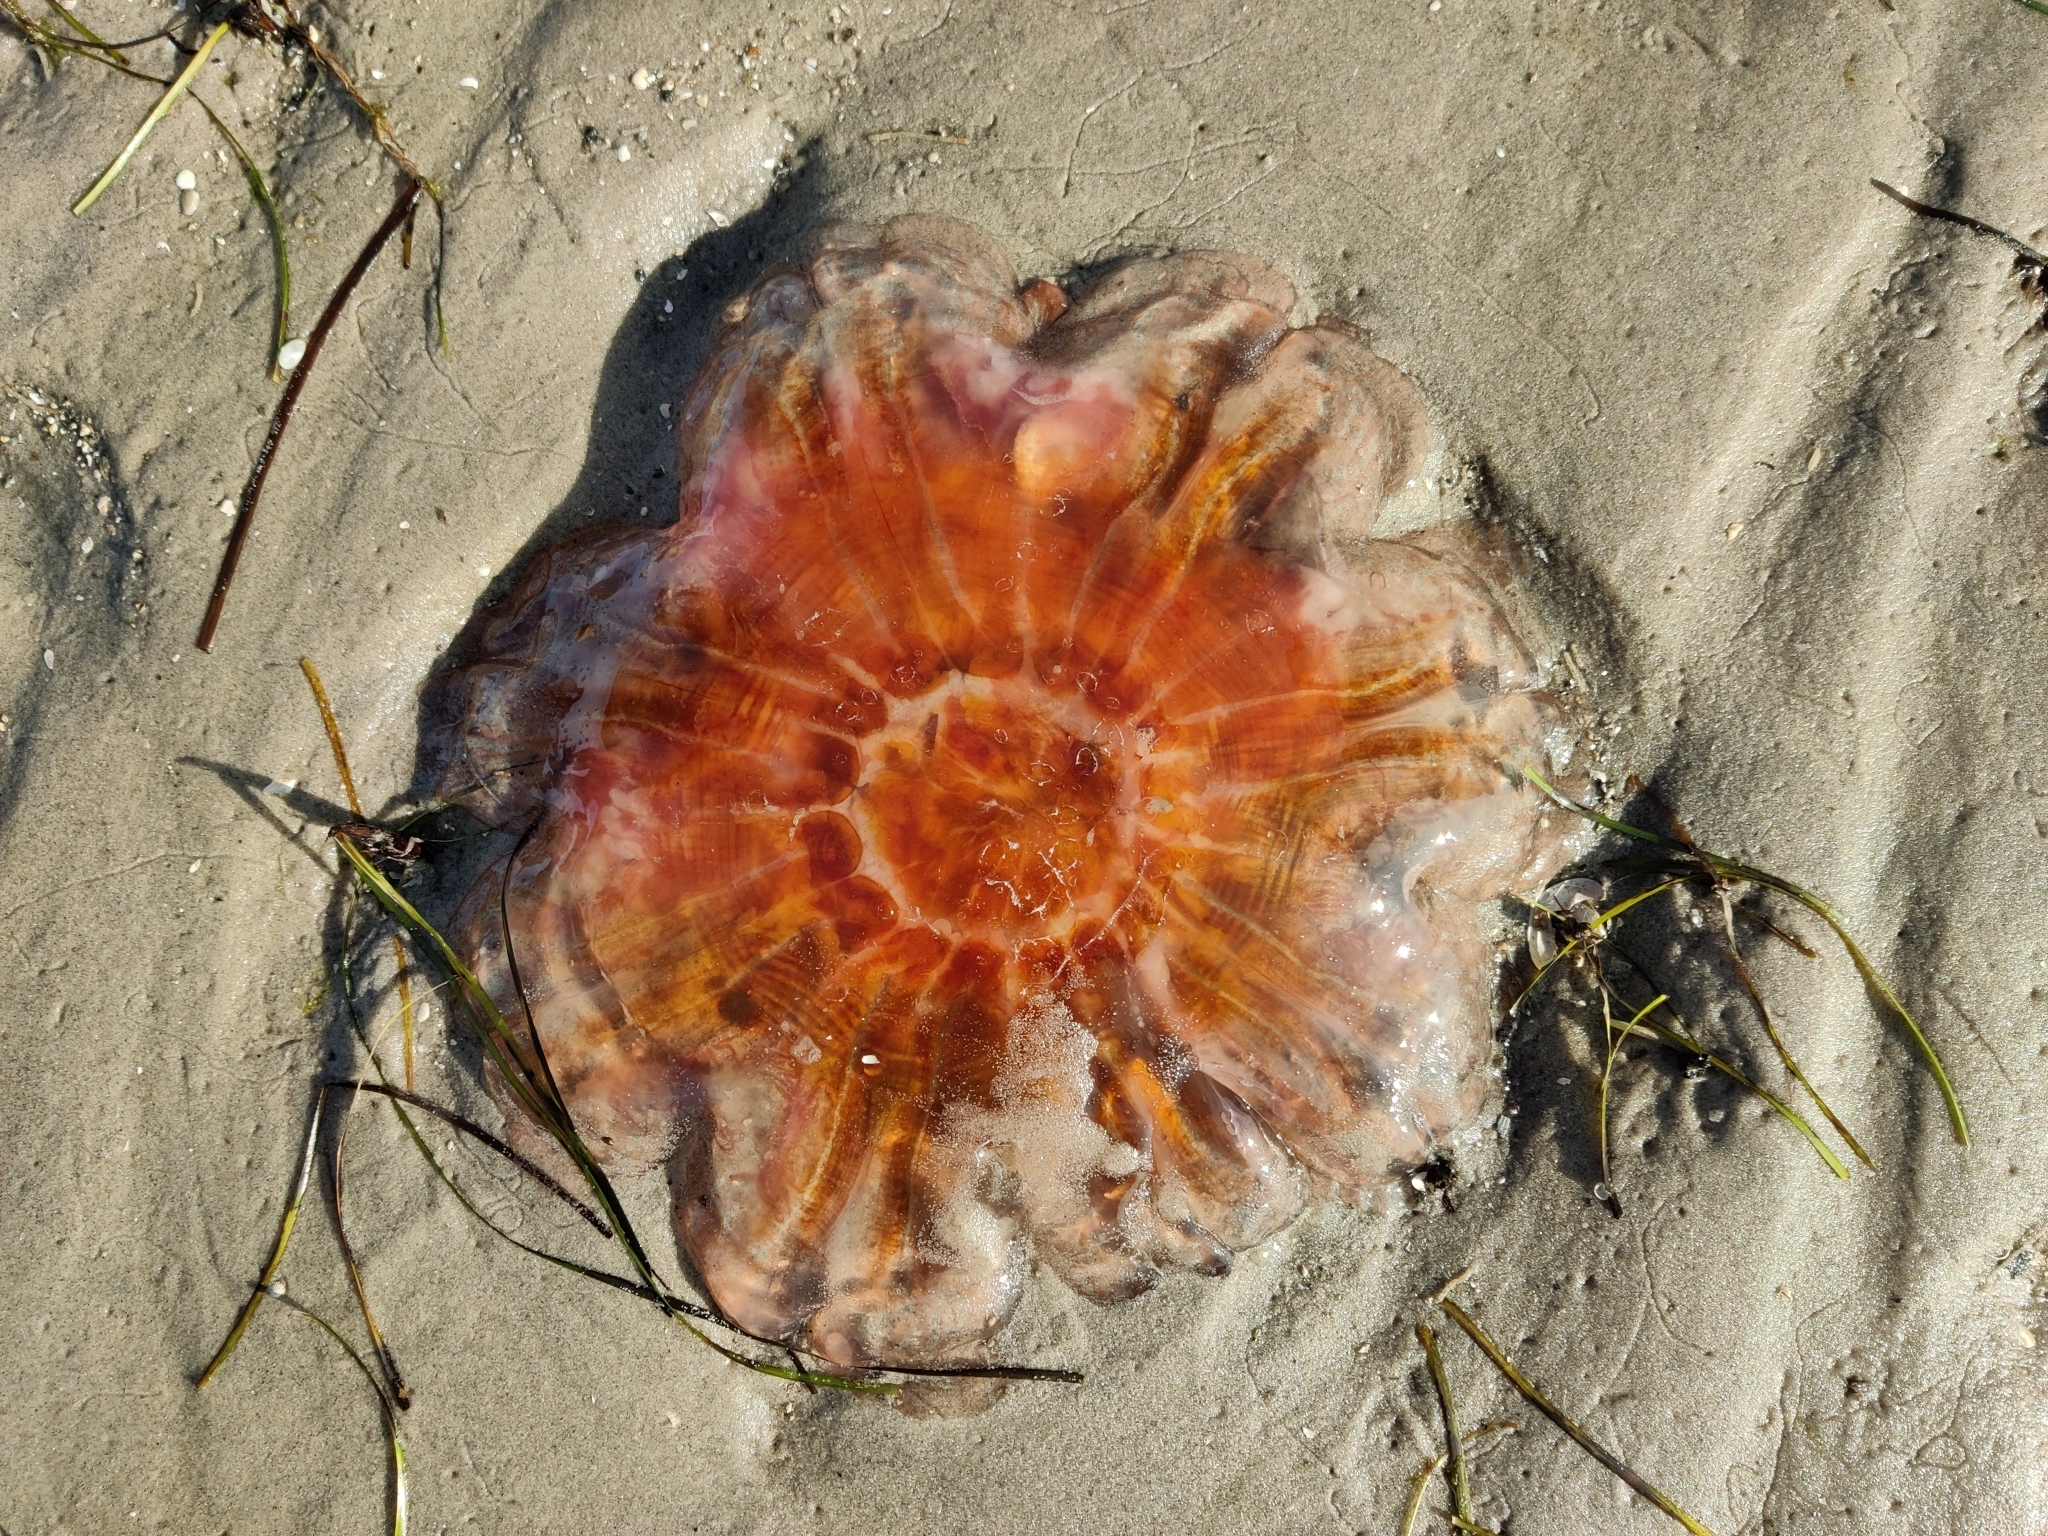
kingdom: Animalia
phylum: Cnidaria
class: Scyphozoa
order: Semaeostomeae
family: Cyaneidae
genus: Cyanea
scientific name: Cyanea capillata
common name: Lion's mane jellyfish
